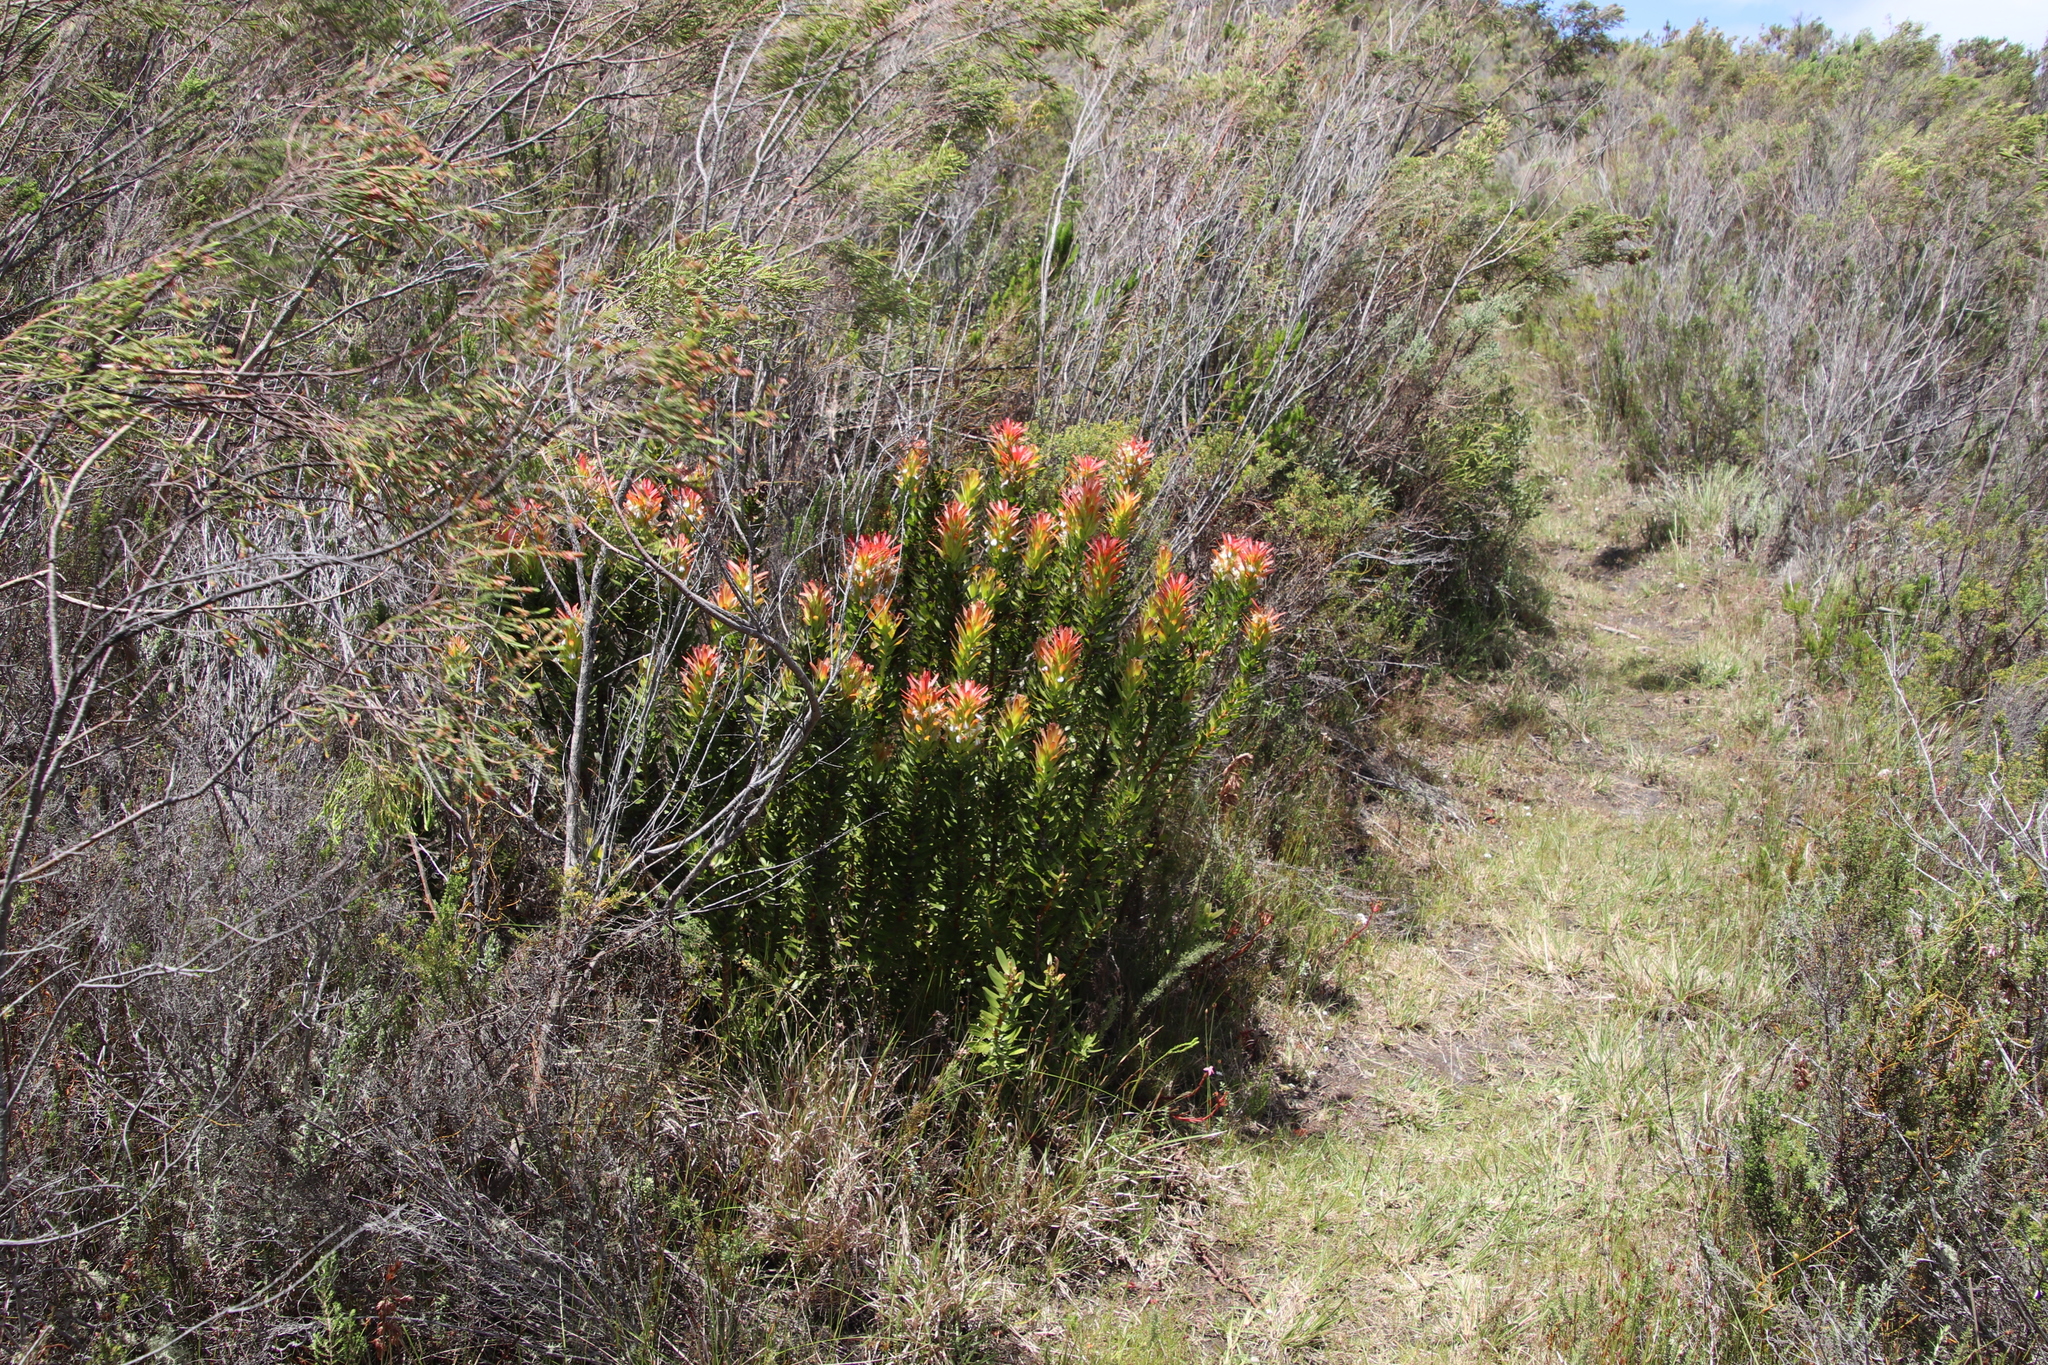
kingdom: Plantae
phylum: Tracheophyta
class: Magnoliopsida
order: Proteales
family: Proteaceae
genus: Mimetes
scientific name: Mimetes cucullatus
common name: Common pagoda
